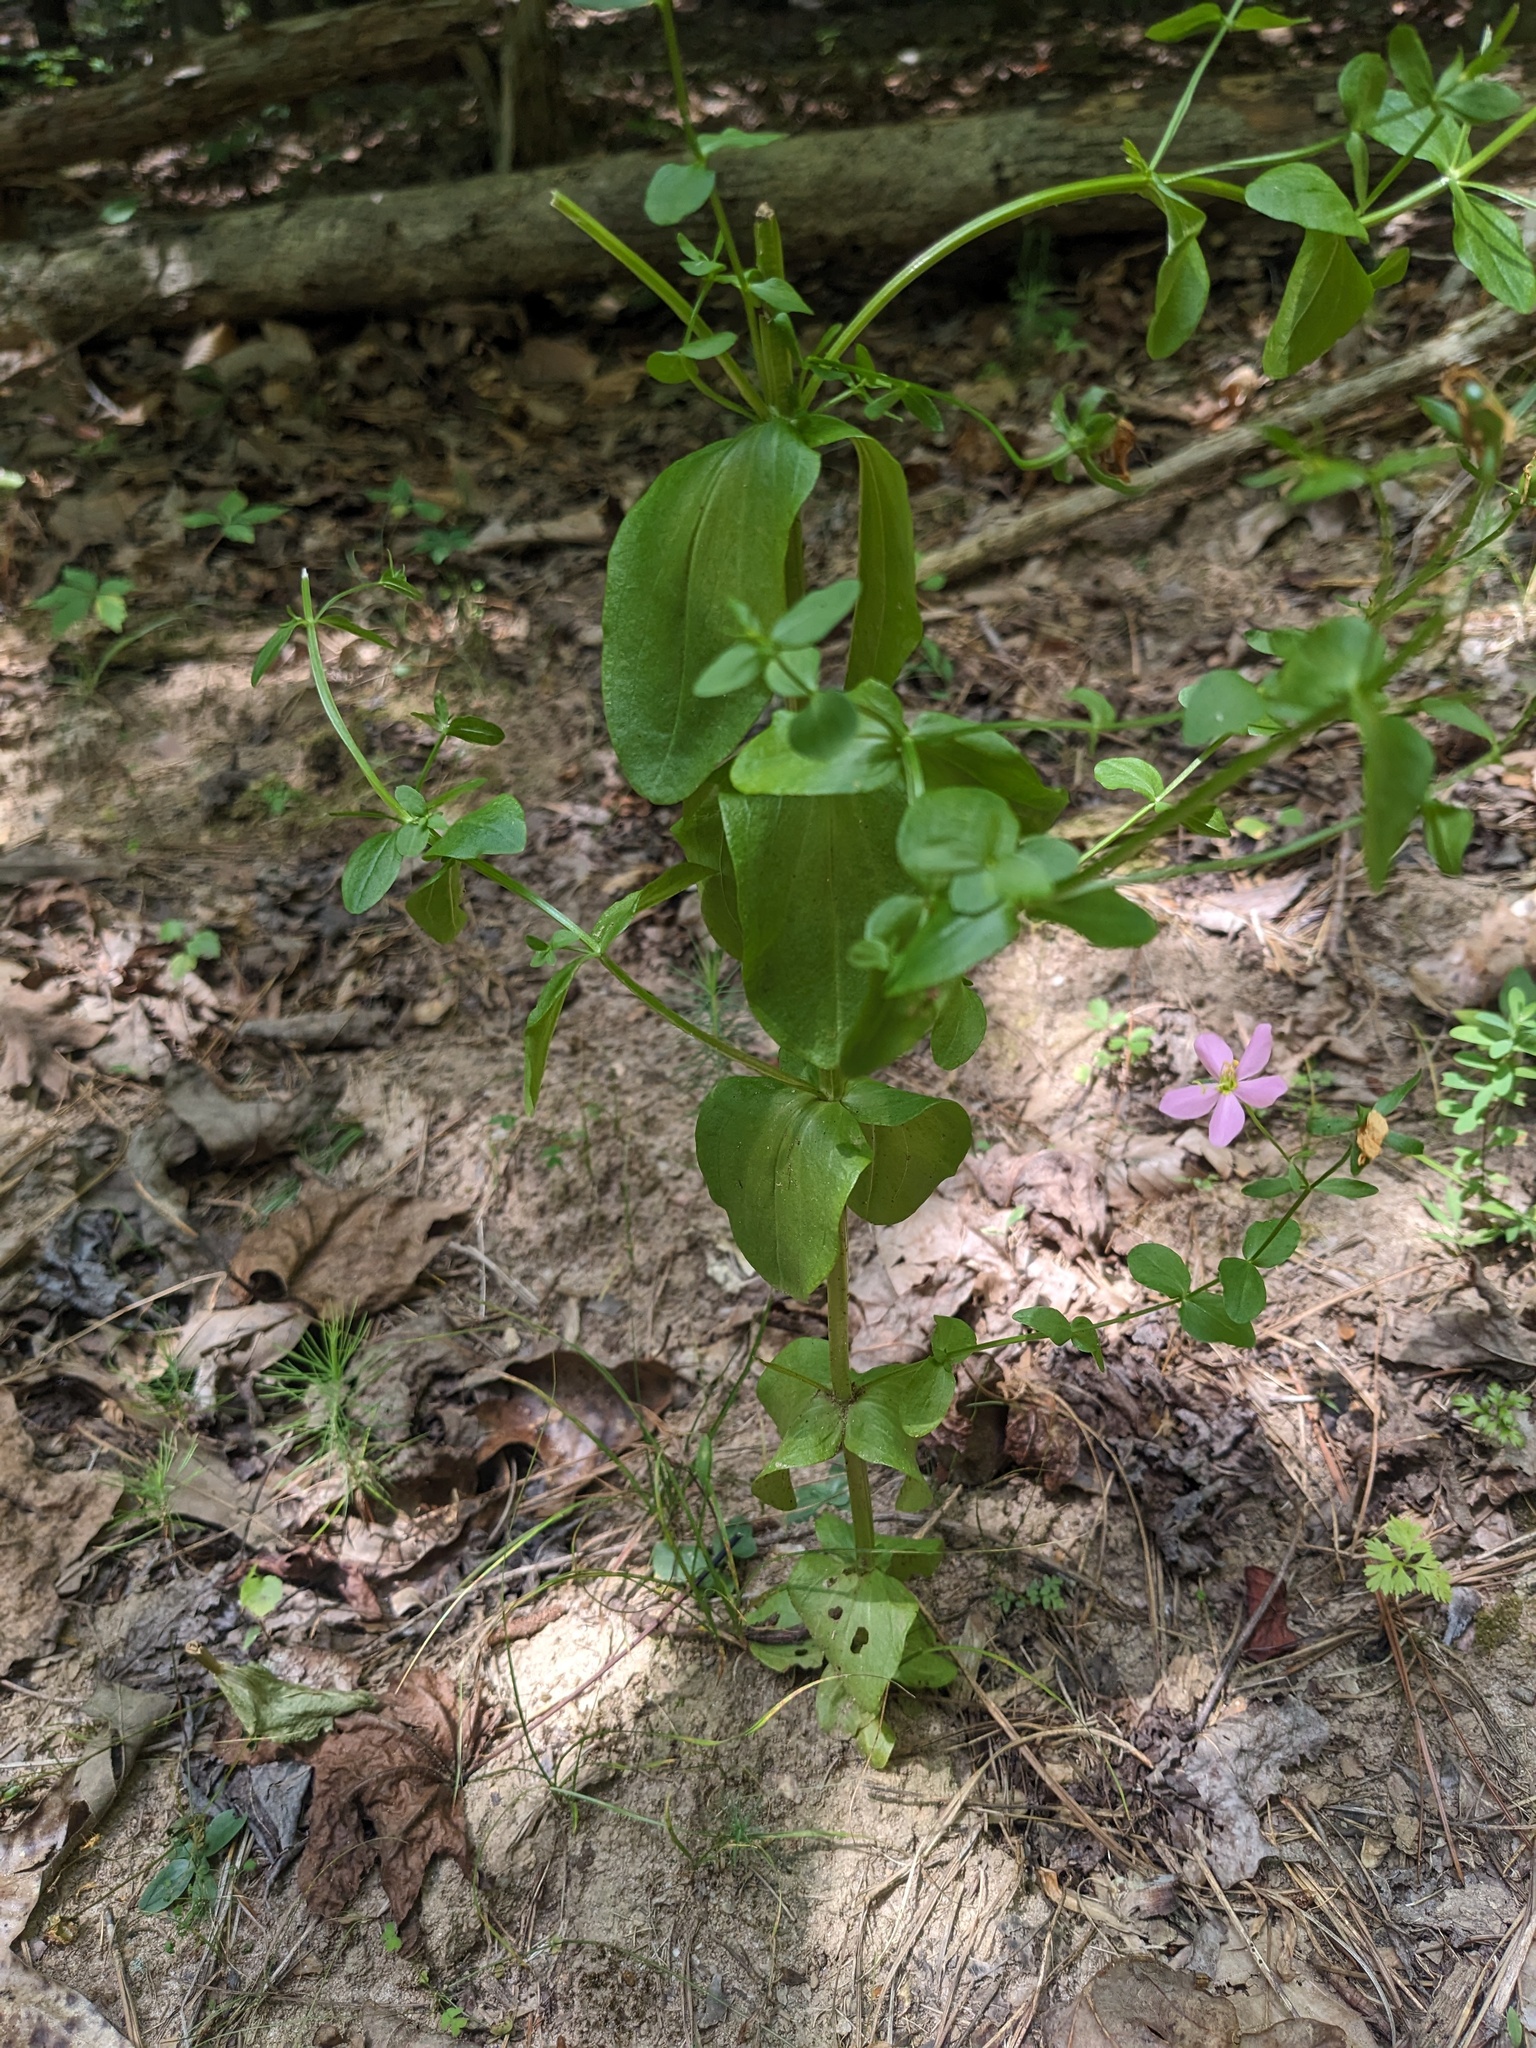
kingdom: Plantae
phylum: Tracheophyta
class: Magnoliopsida
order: Gentianales
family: Gentianaceae
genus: Sabatia
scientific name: Sabatia angularis
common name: Rose-pink
